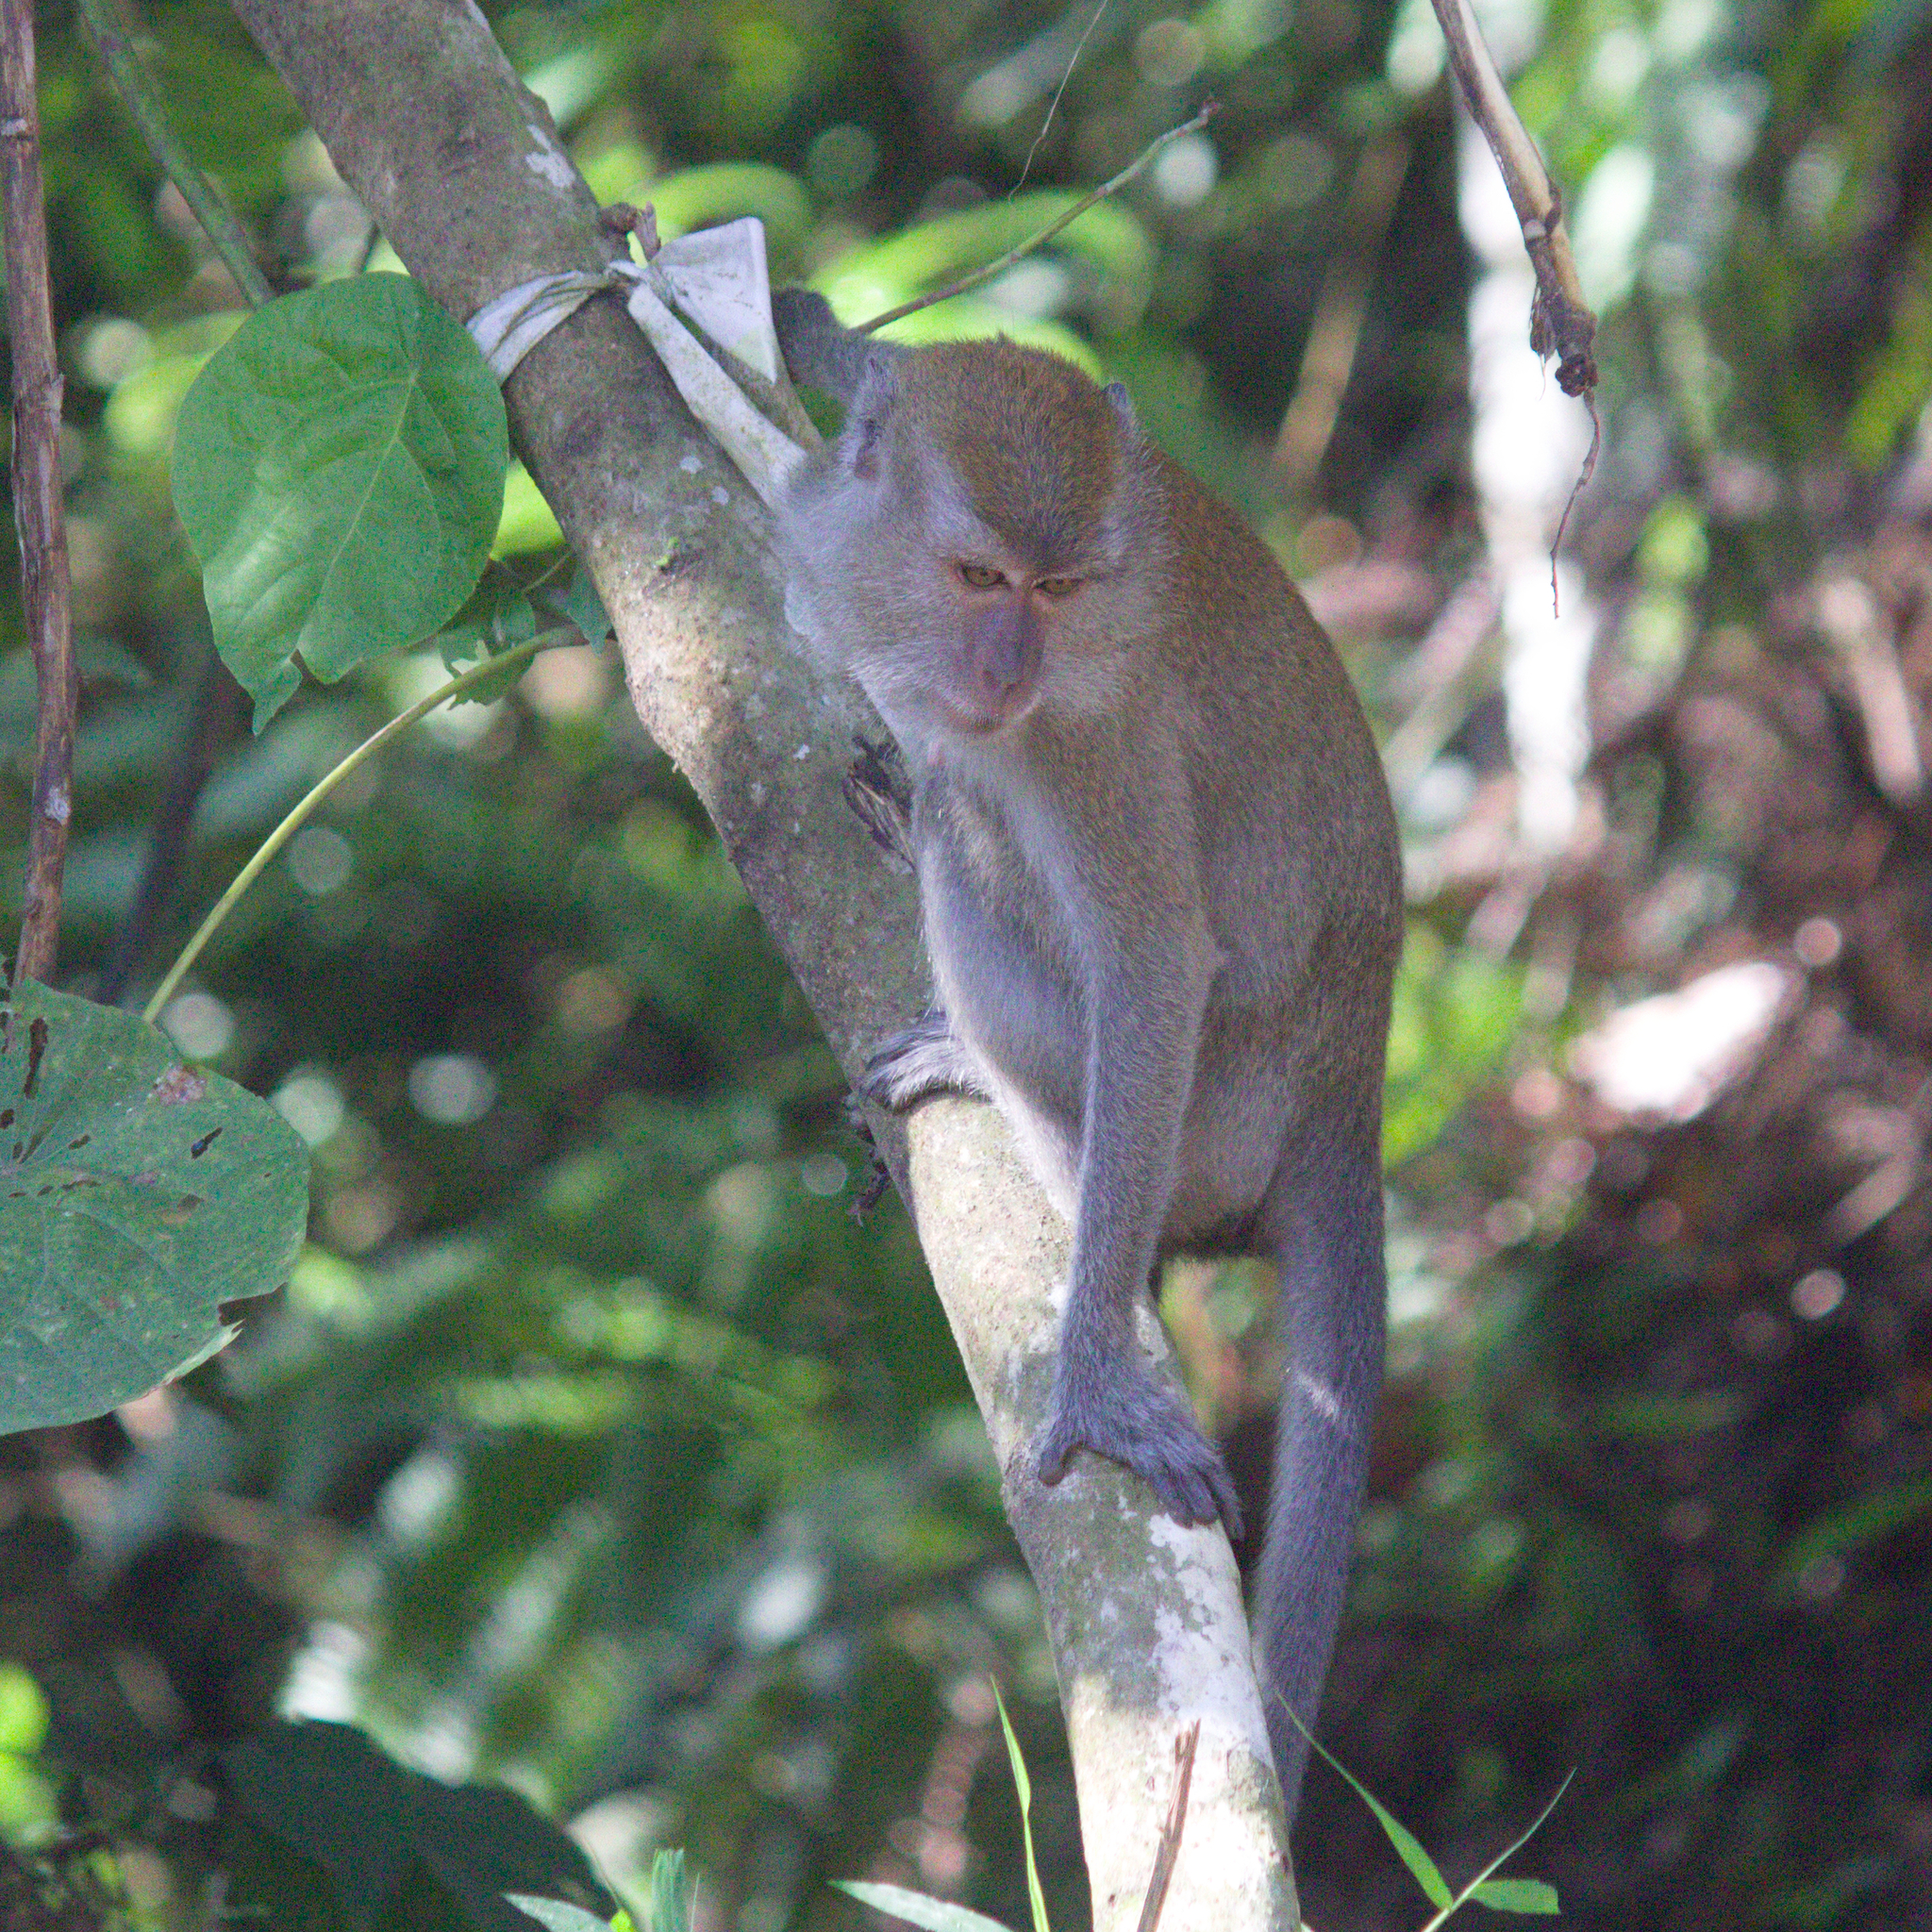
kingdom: Animalia
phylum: Chordata
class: Mammalia
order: Primates
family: Cercopithecidae
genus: Macaca
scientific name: Macaca fascicularis
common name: Crab-eating macaque
